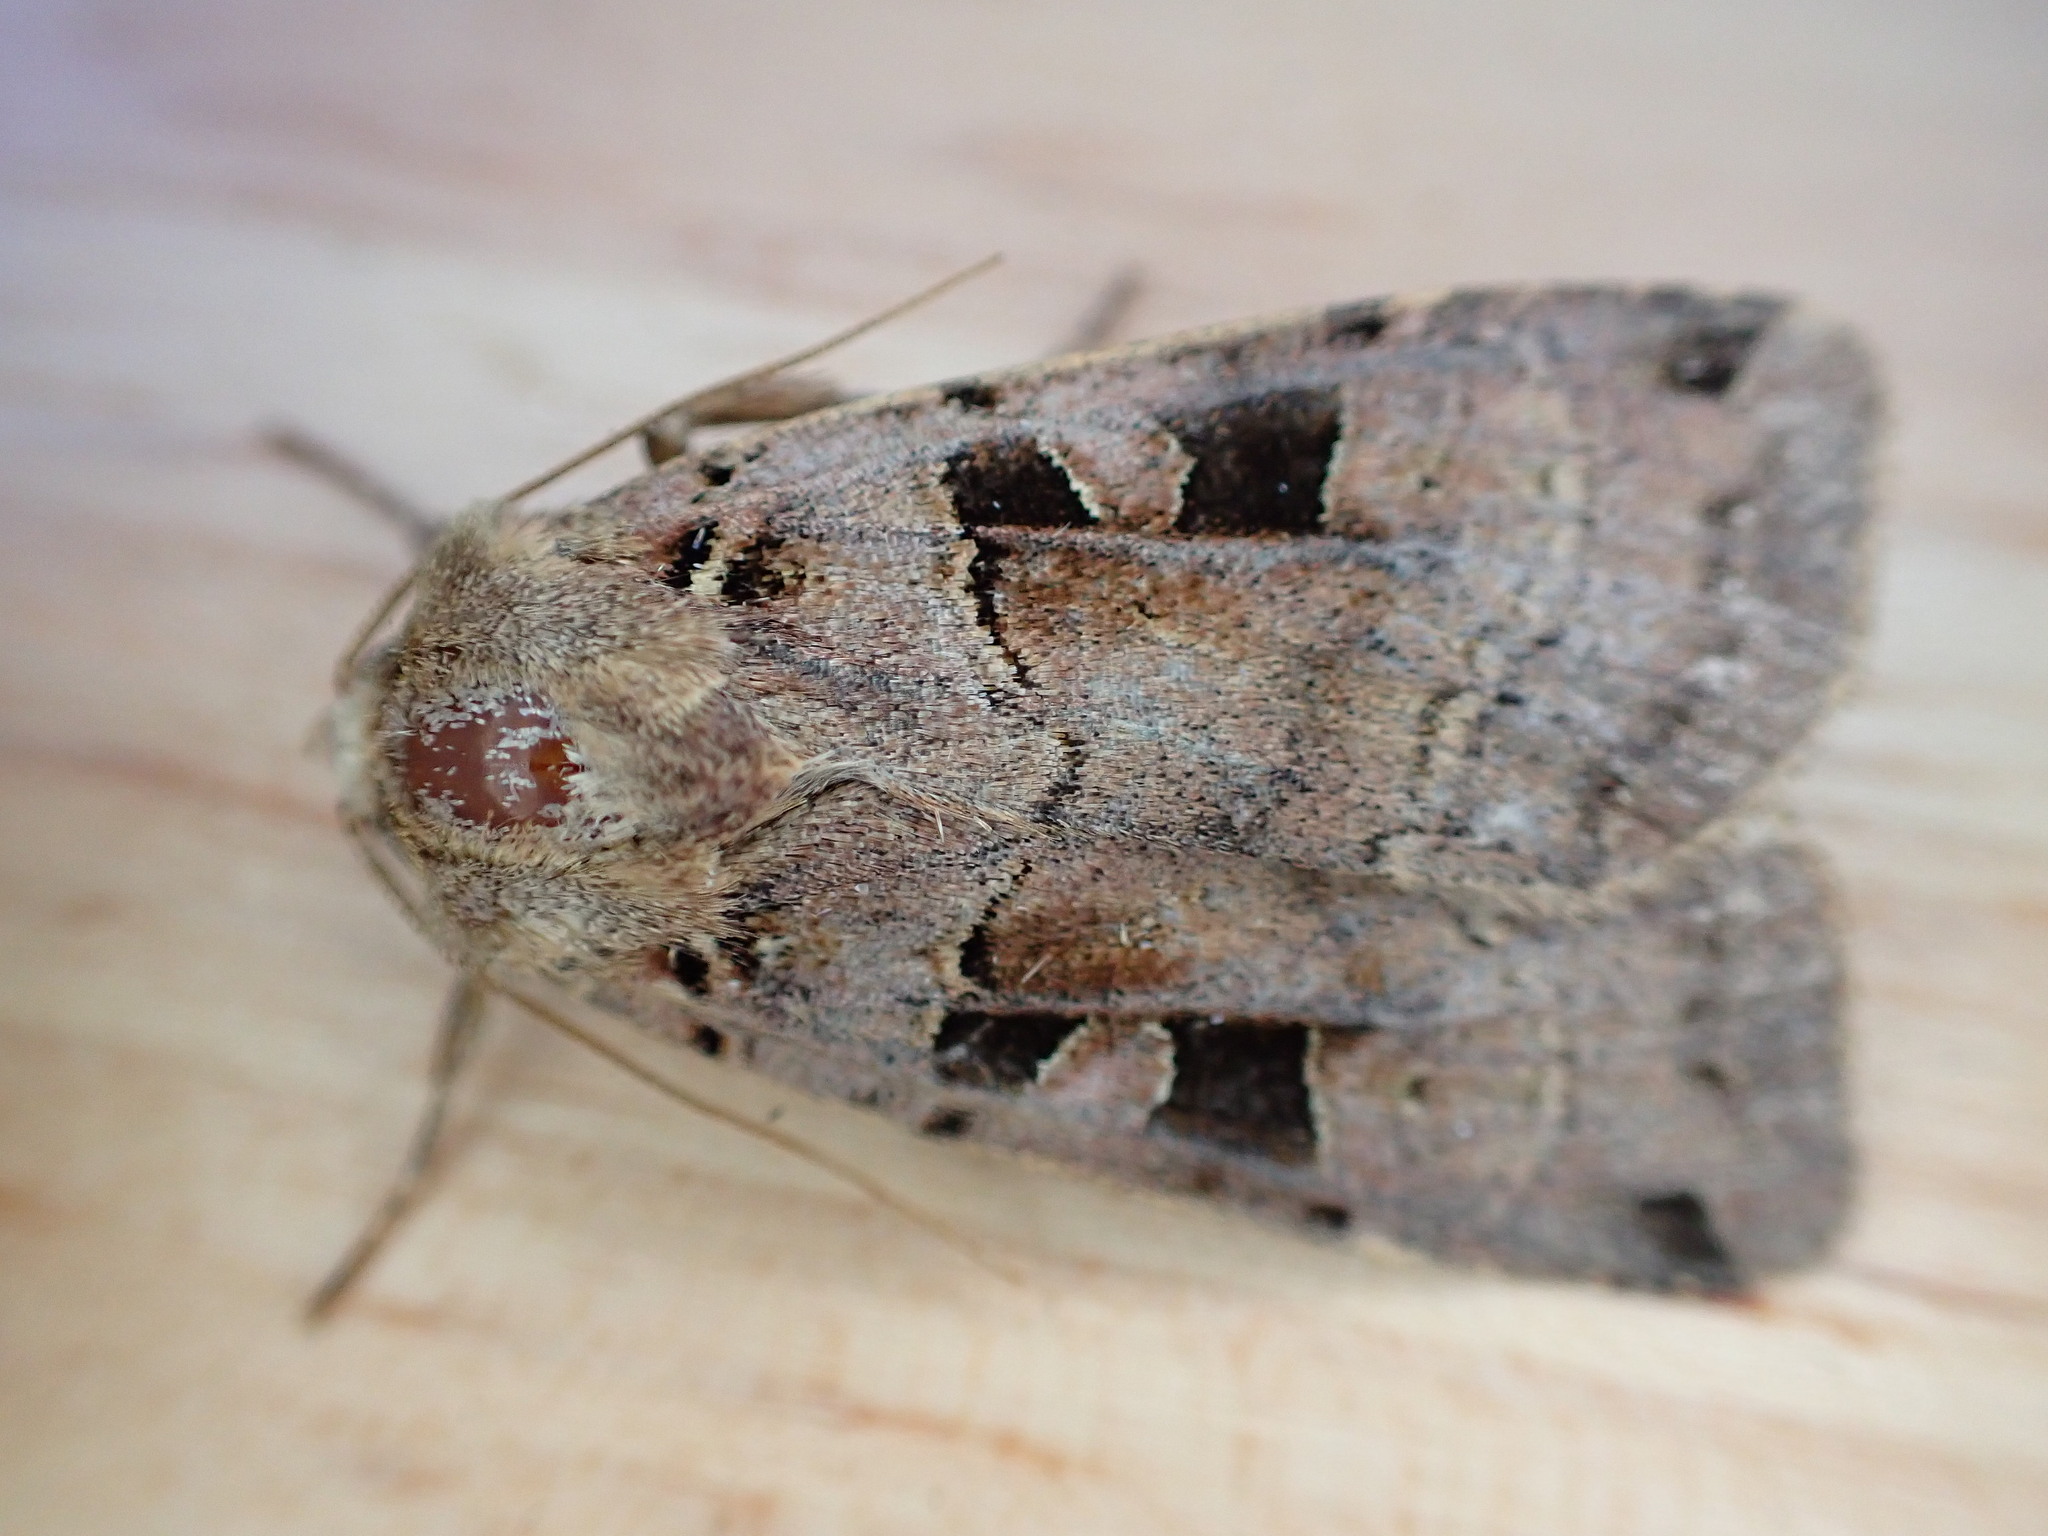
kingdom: Animalia
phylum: Arthropoda
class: Insecta
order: Lepidoptera
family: Noctuidae
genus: Xestia
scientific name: Xestia triangulum
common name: Double square-spot
